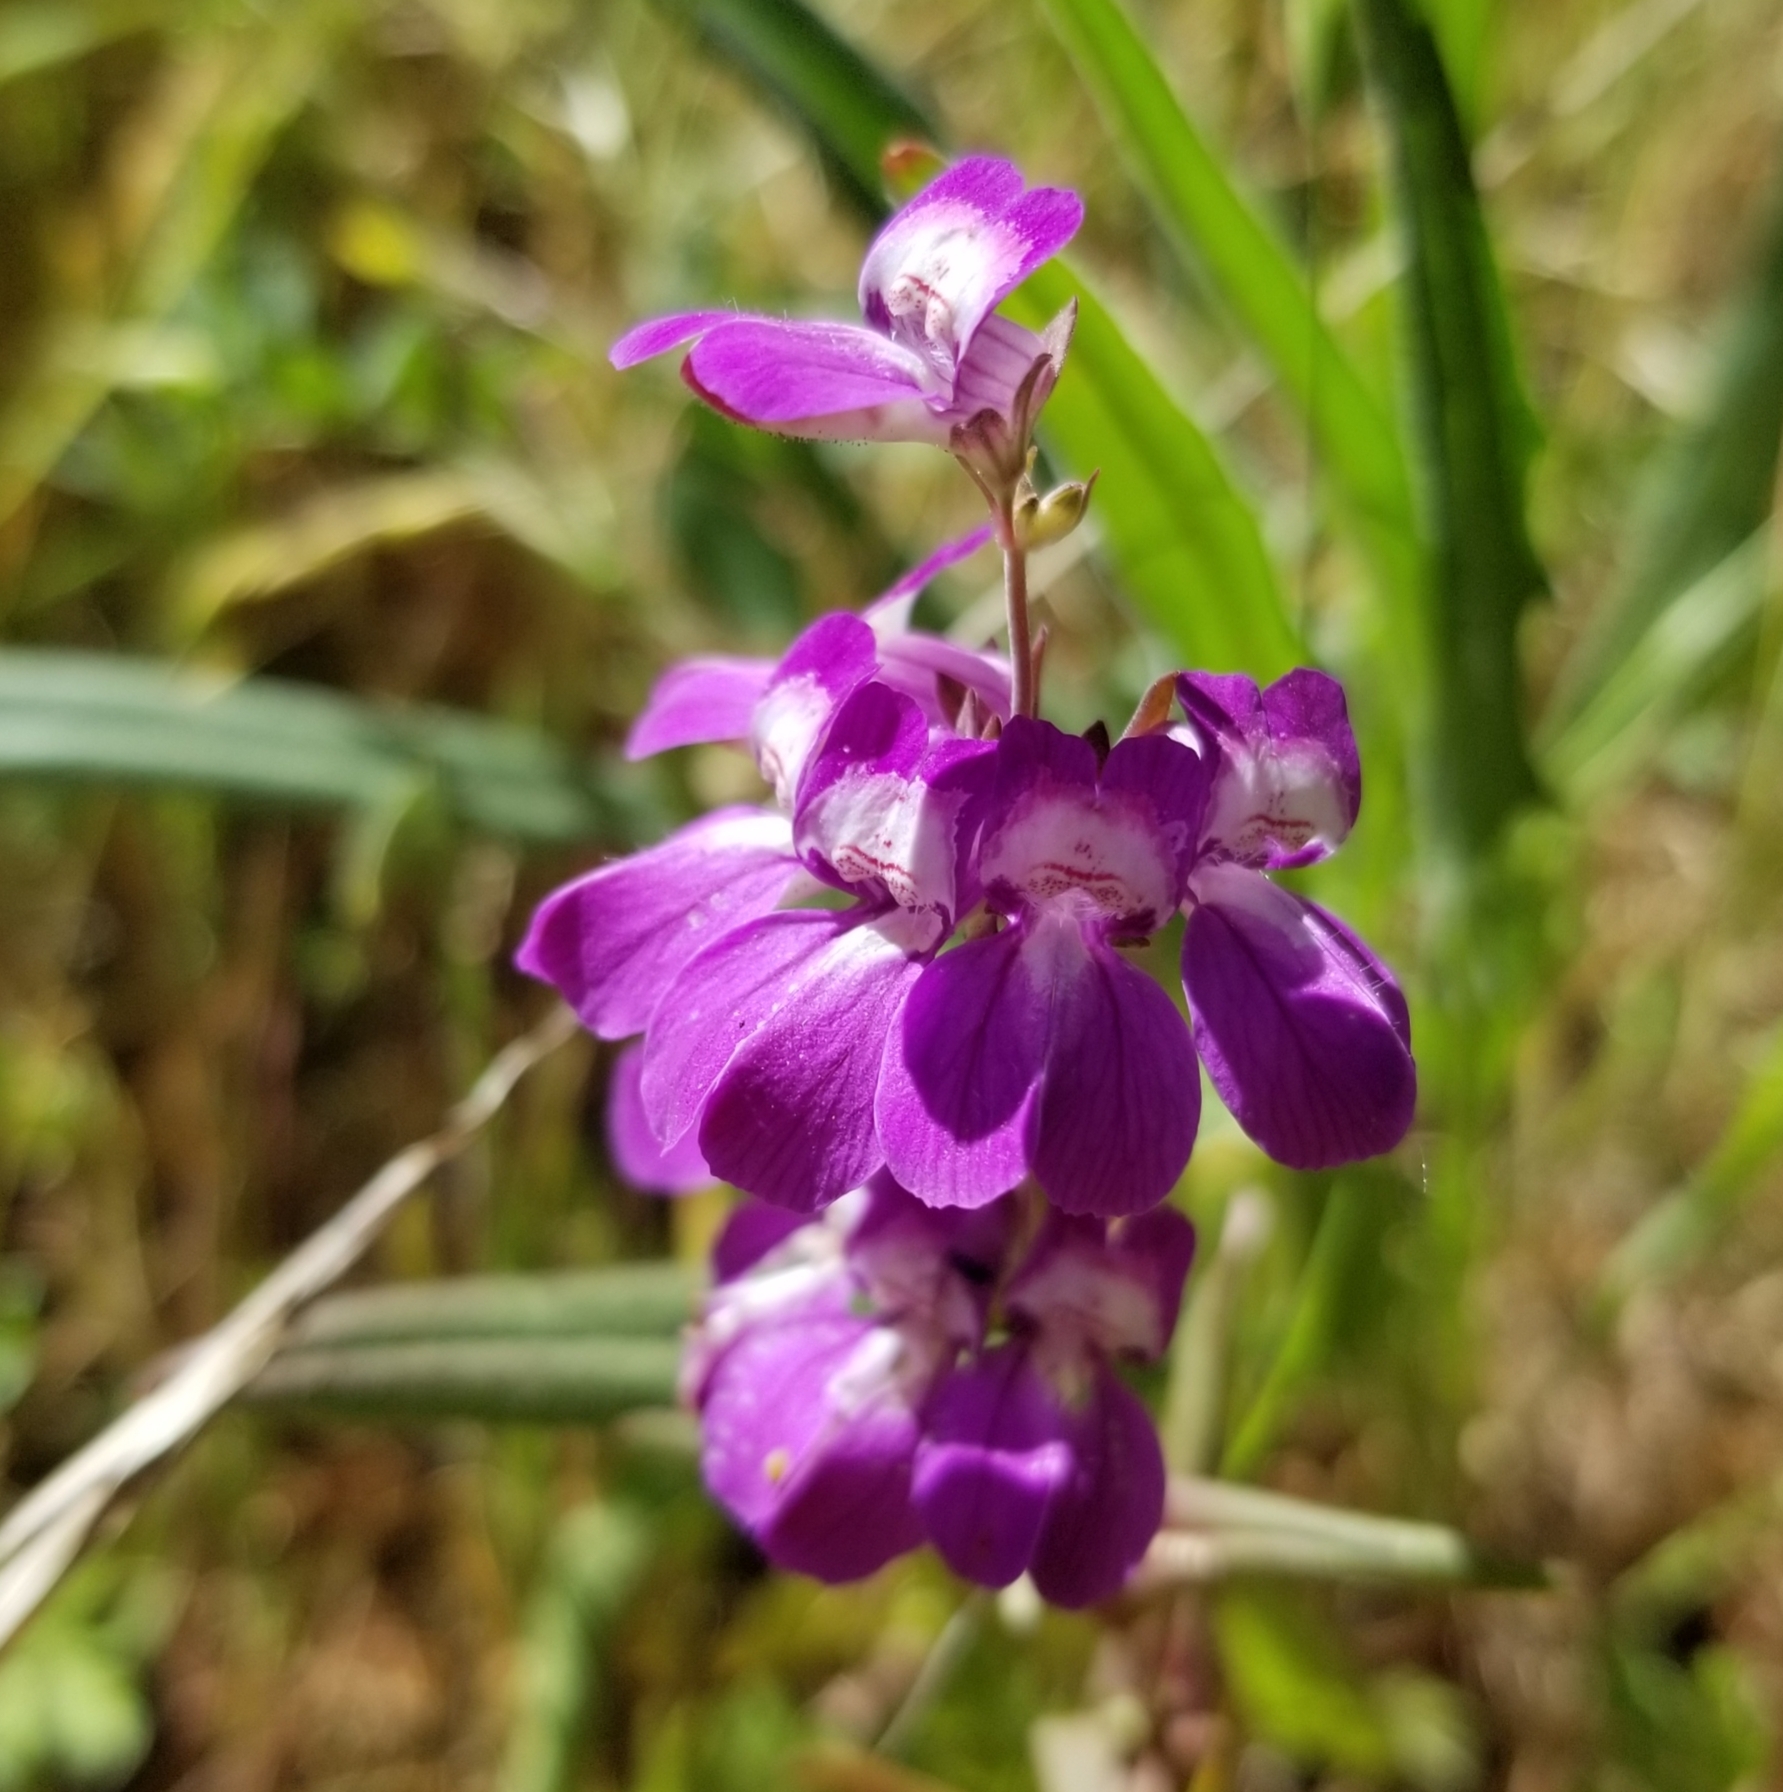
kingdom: Plantae
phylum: Tracheophyta
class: Magnoliopsida
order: Lamiales
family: Plantaginaceae
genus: Collinsia
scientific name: Collinsia heterophylla
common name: Chinese-houses
